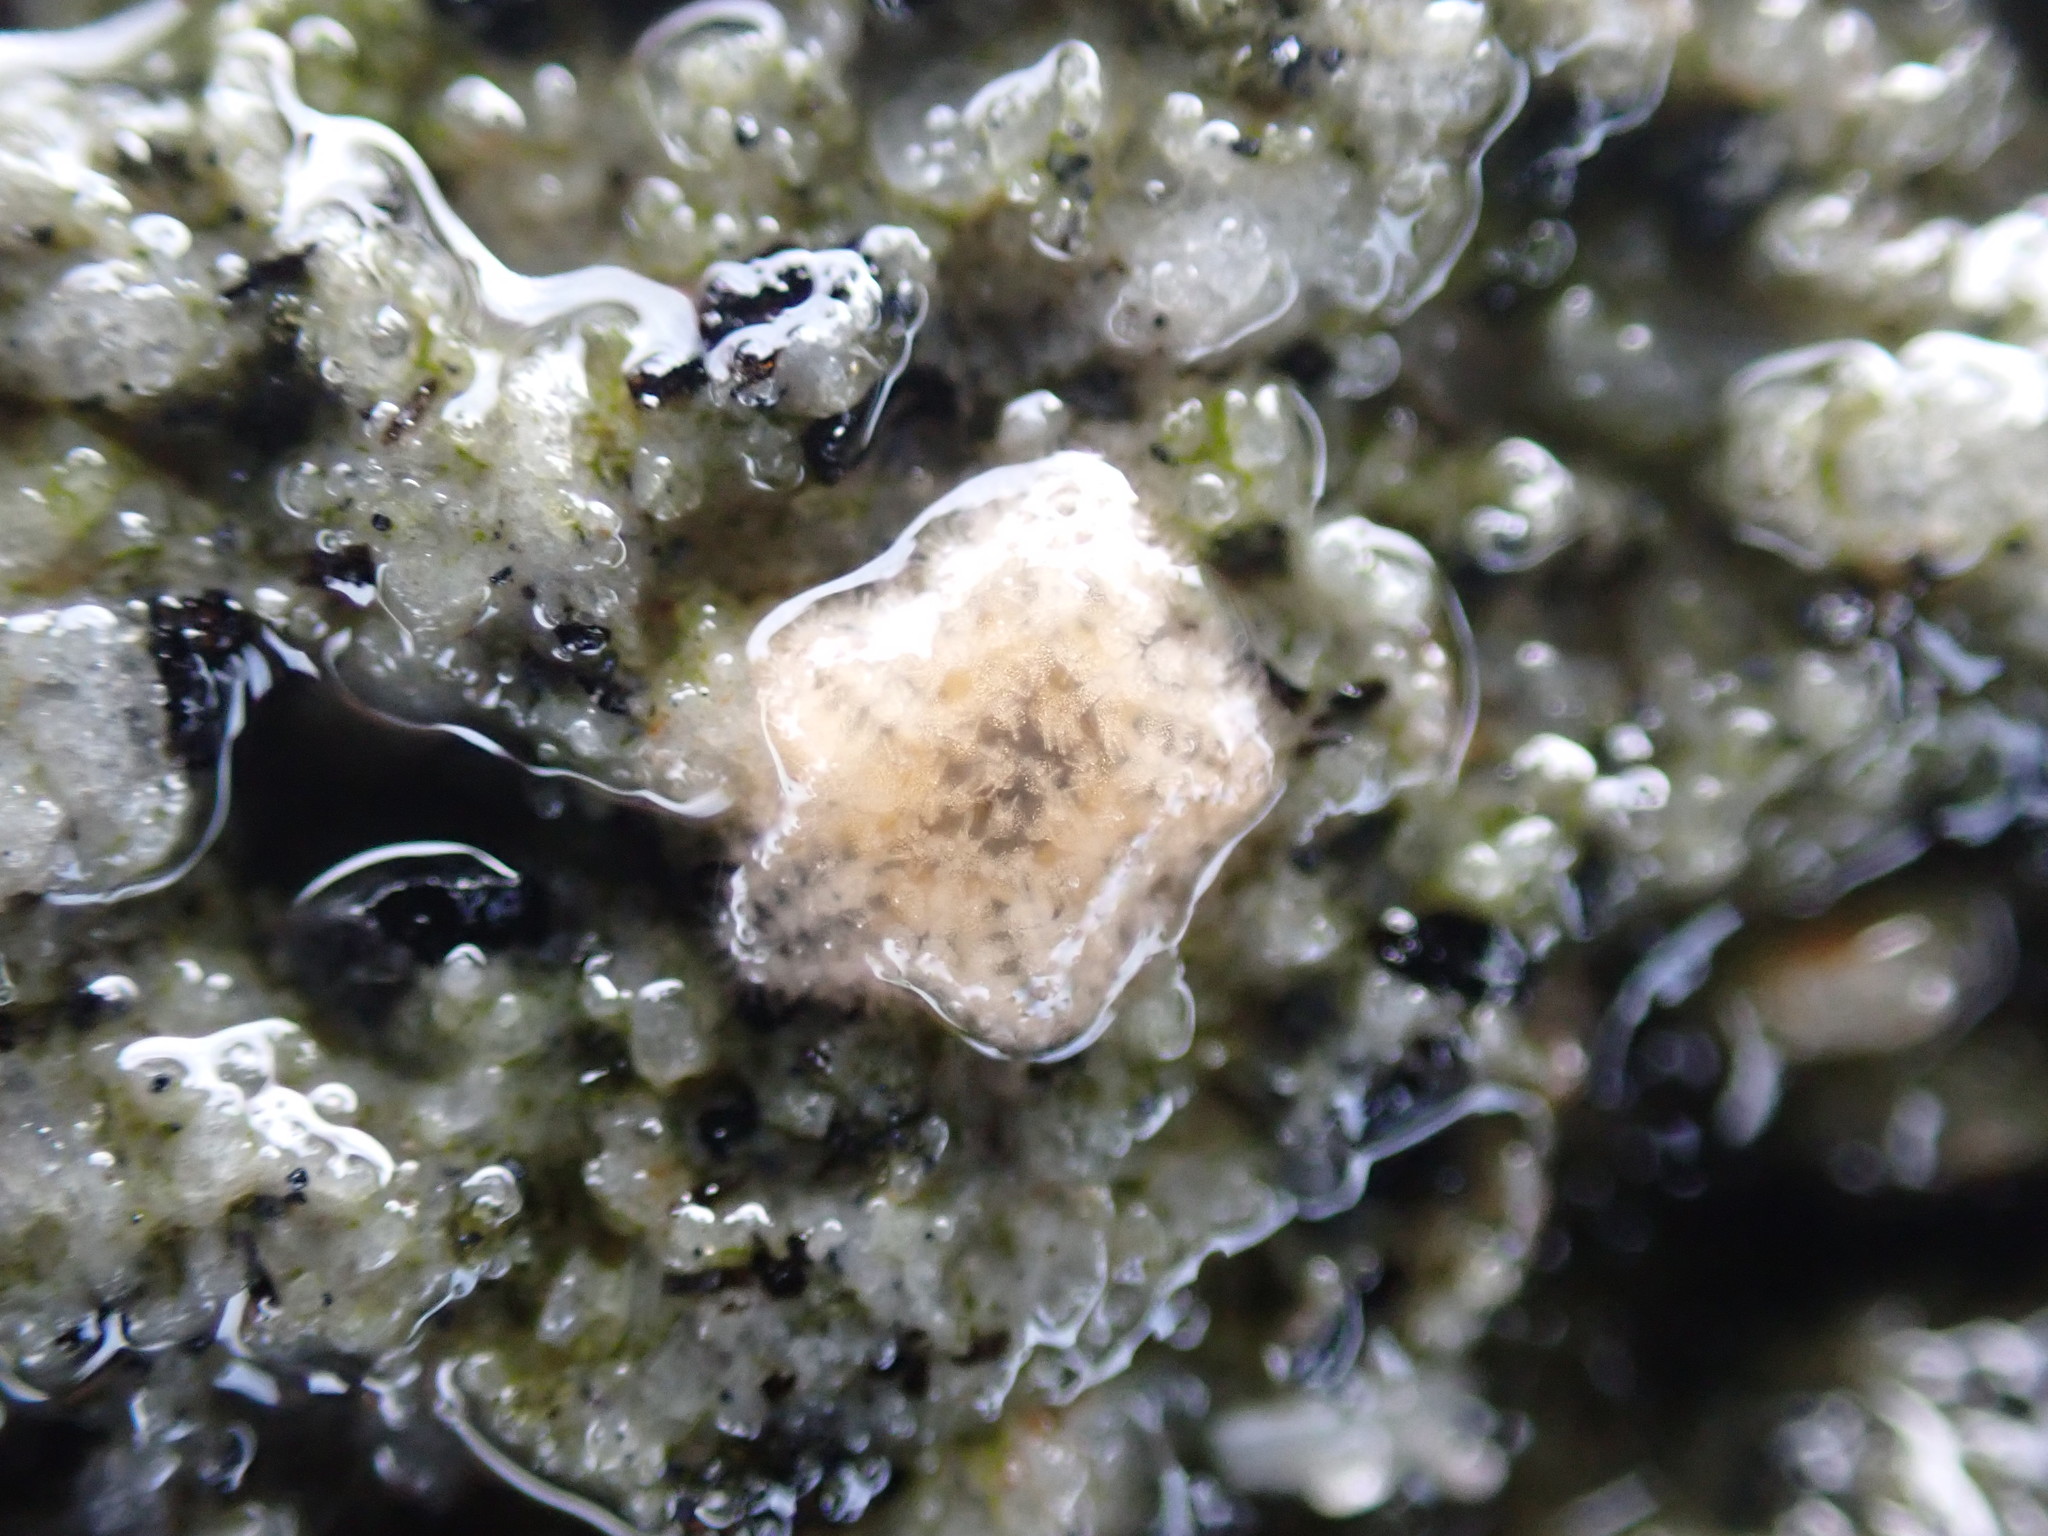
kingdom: Animalia
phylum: Echinodermata
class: Asteroidea
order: Valvatida
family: Asterinidae
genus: Patiriella
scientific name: Patiriella regularis
